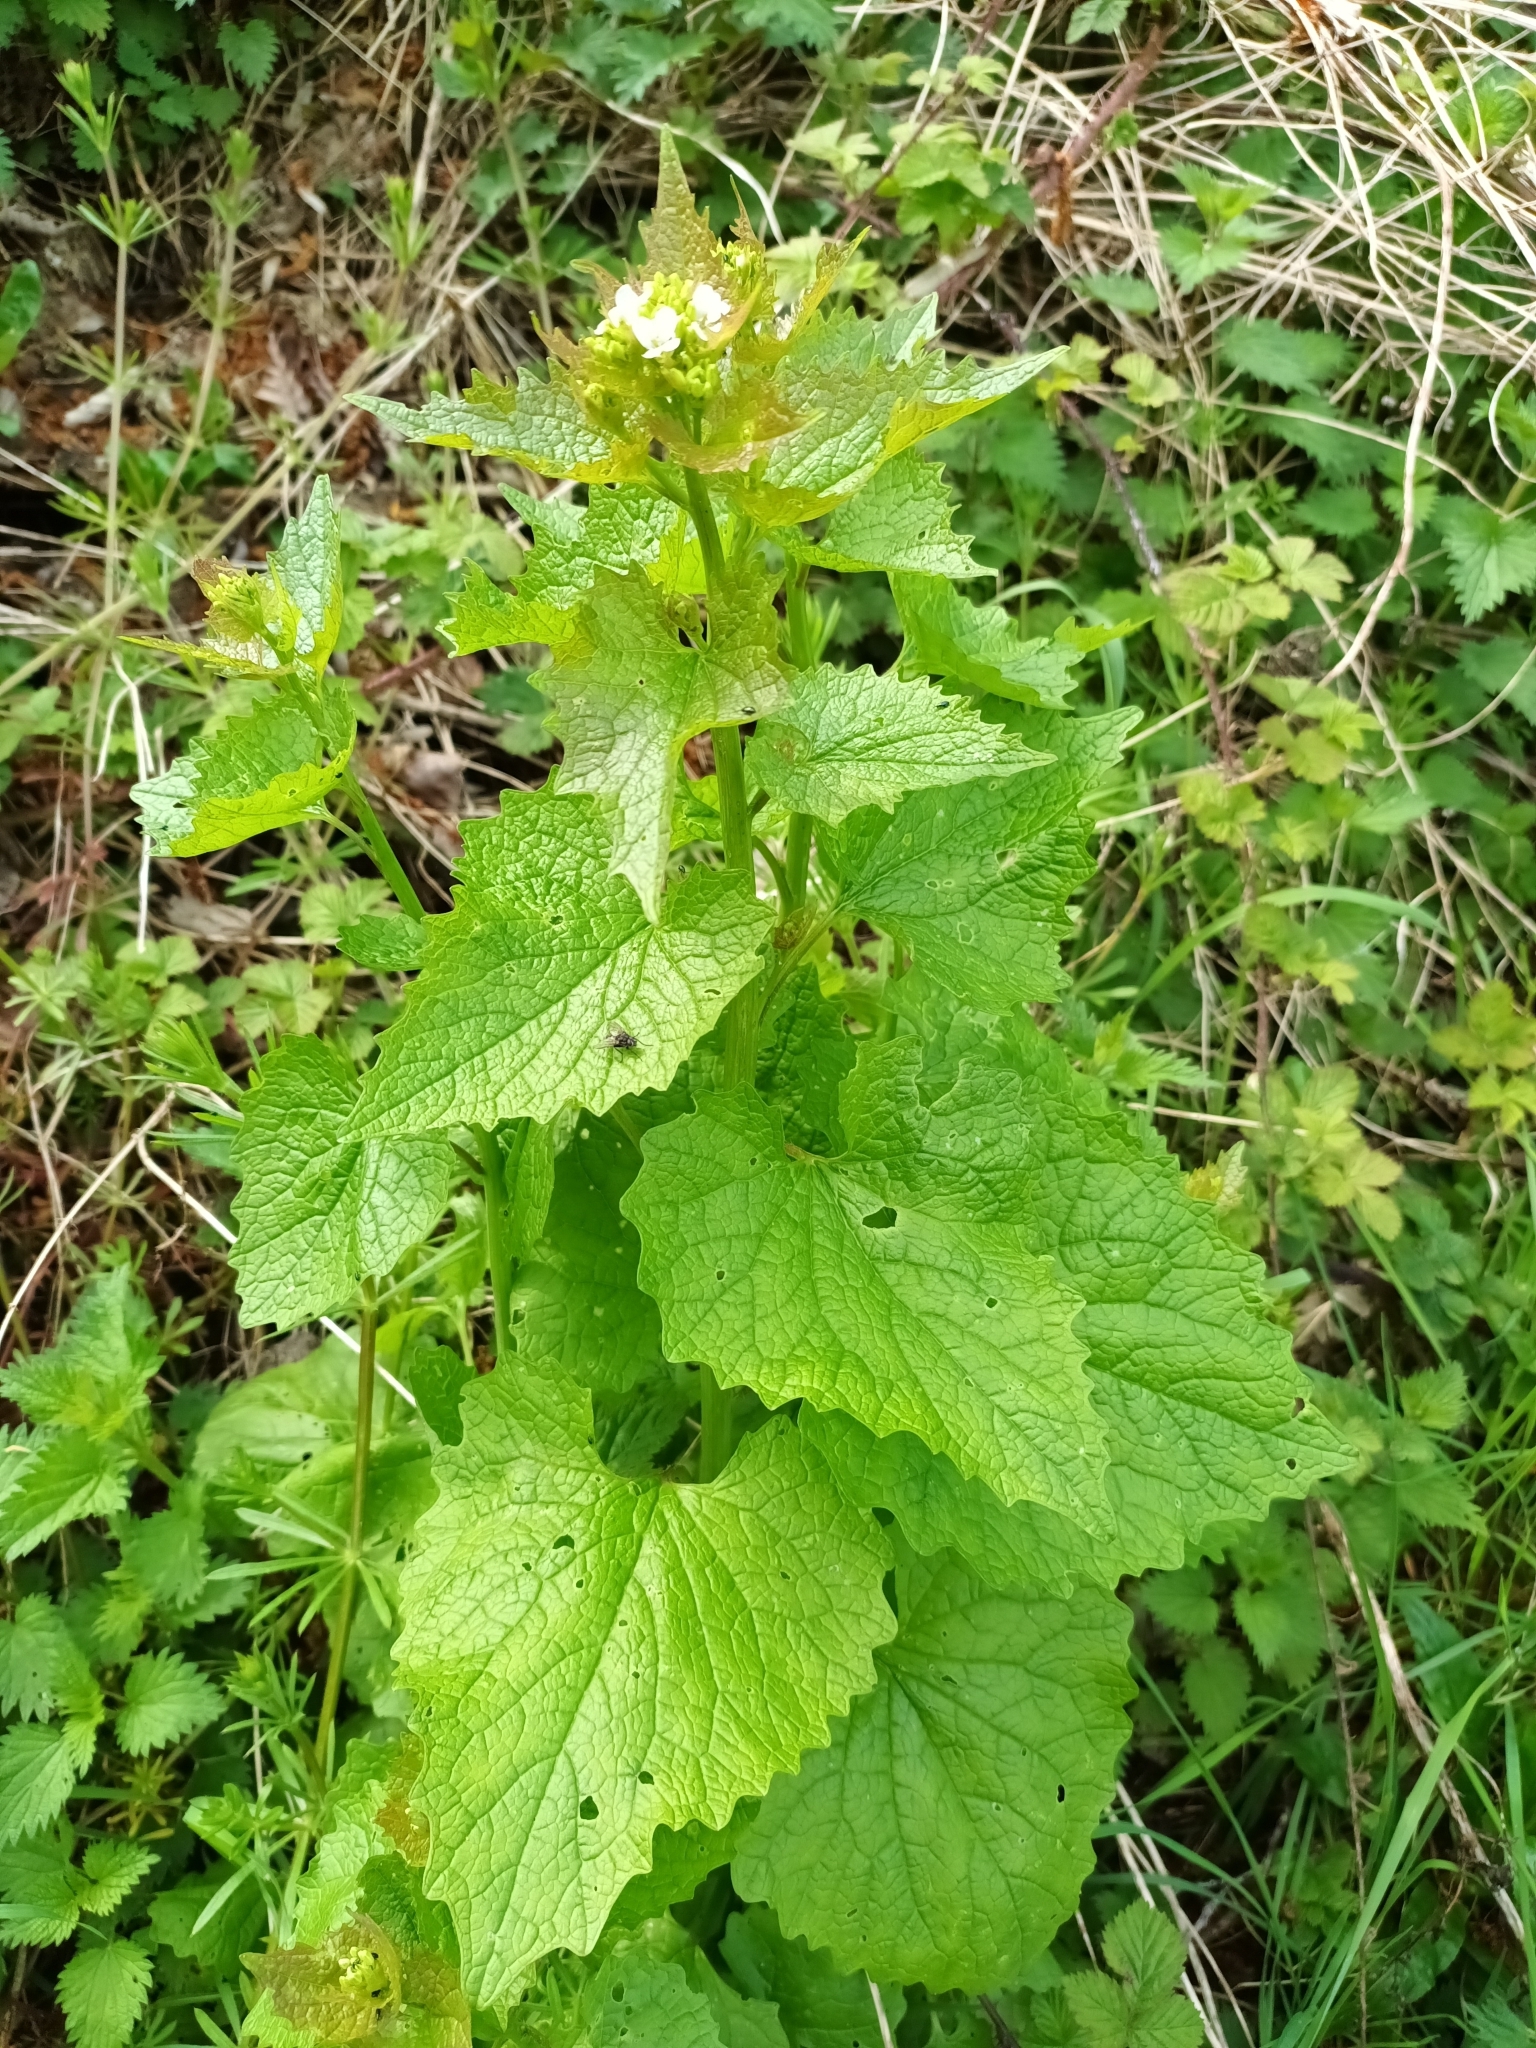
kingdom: Plantae
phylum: Tracheophyta
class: Magnoliopsida
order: Brassicales
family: Brassicaceae
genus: Alliaria
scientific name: Alliaria petiolata
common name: Garlic mustard
